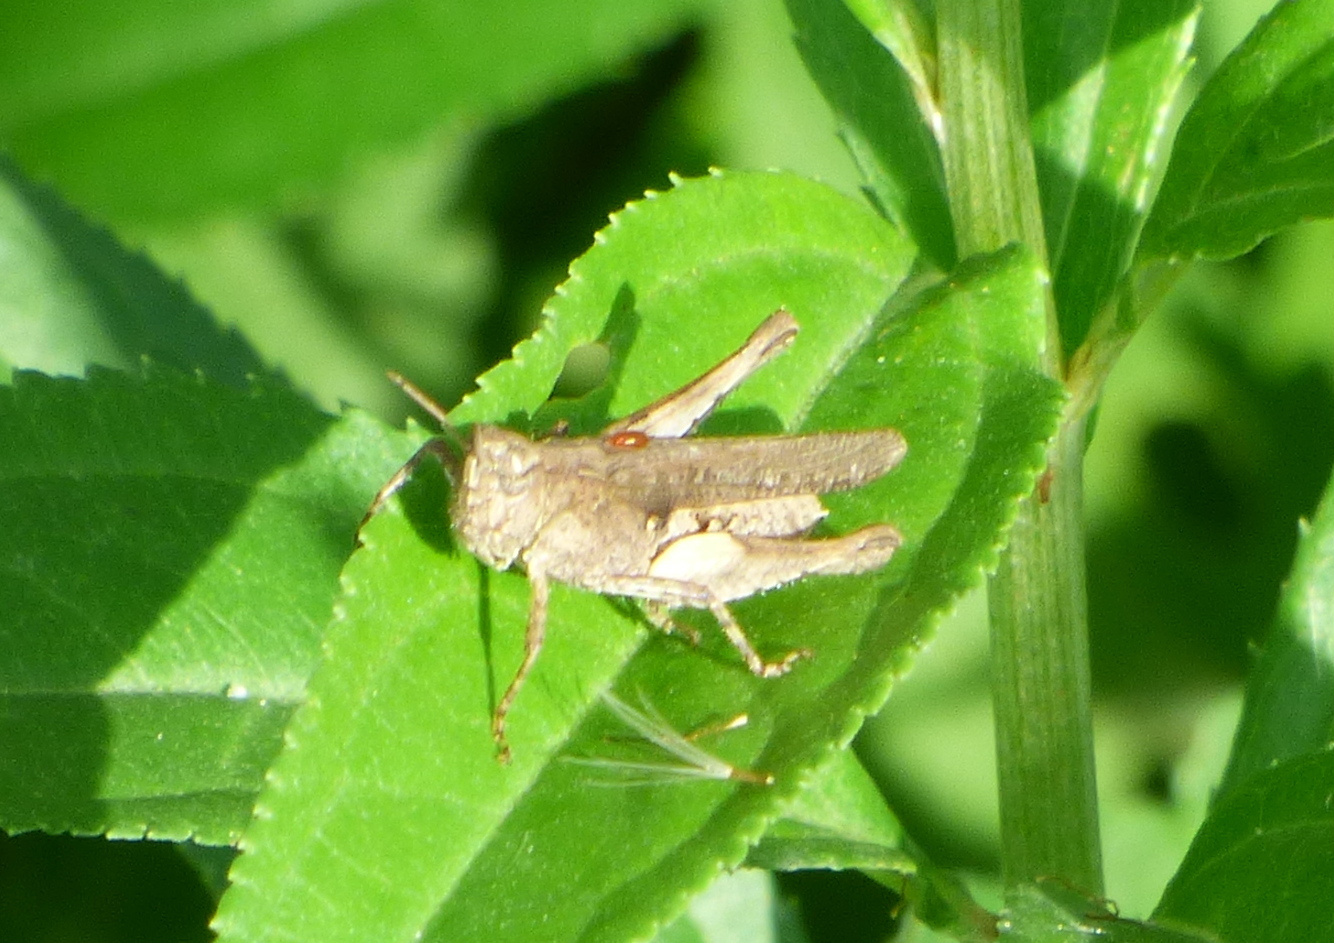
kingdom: Animalia
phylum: Arthropoda
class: Insecta
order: Orthoptera
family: Acrididae
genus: Orphulella
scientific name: Orphulella punctata
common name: Slant-faced grasshopper
